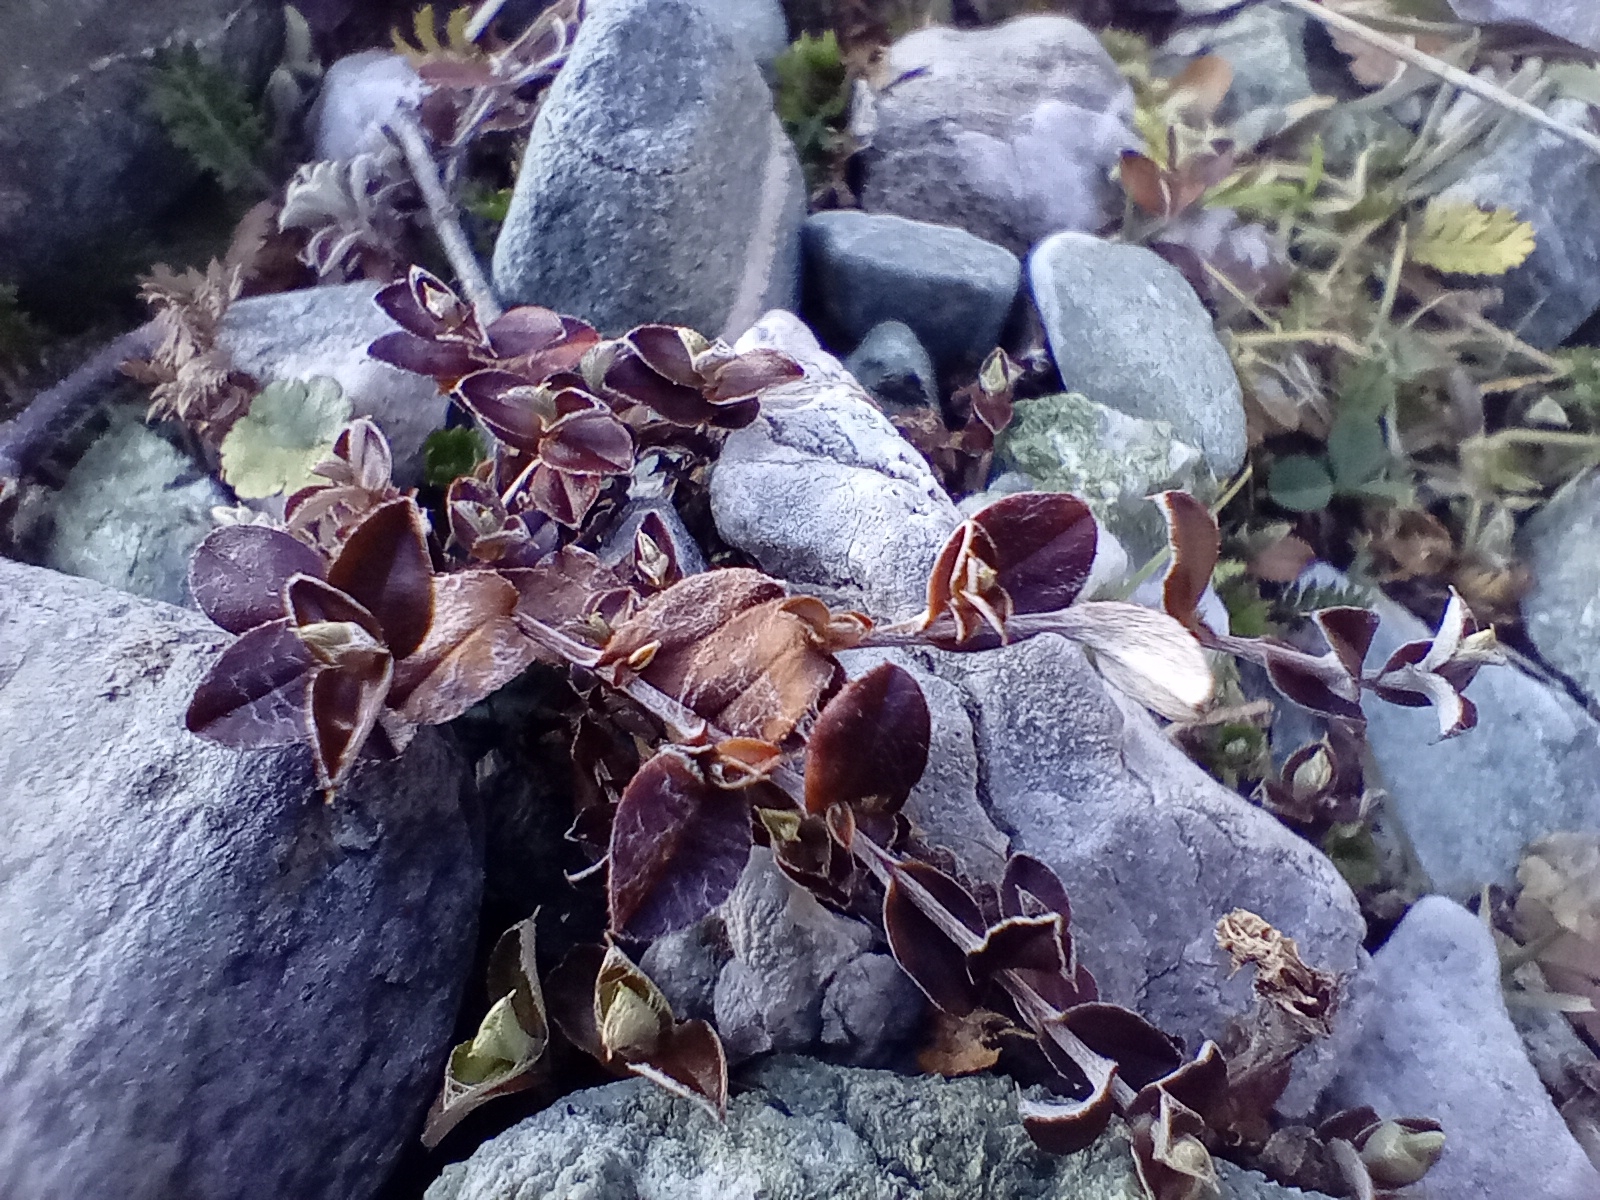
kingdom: Plantae
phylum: Tracheophyta
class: Magnoliopsida
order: Asterales
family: Asteraceae
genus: Helichrysum
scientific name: Helichrysum filicaule
